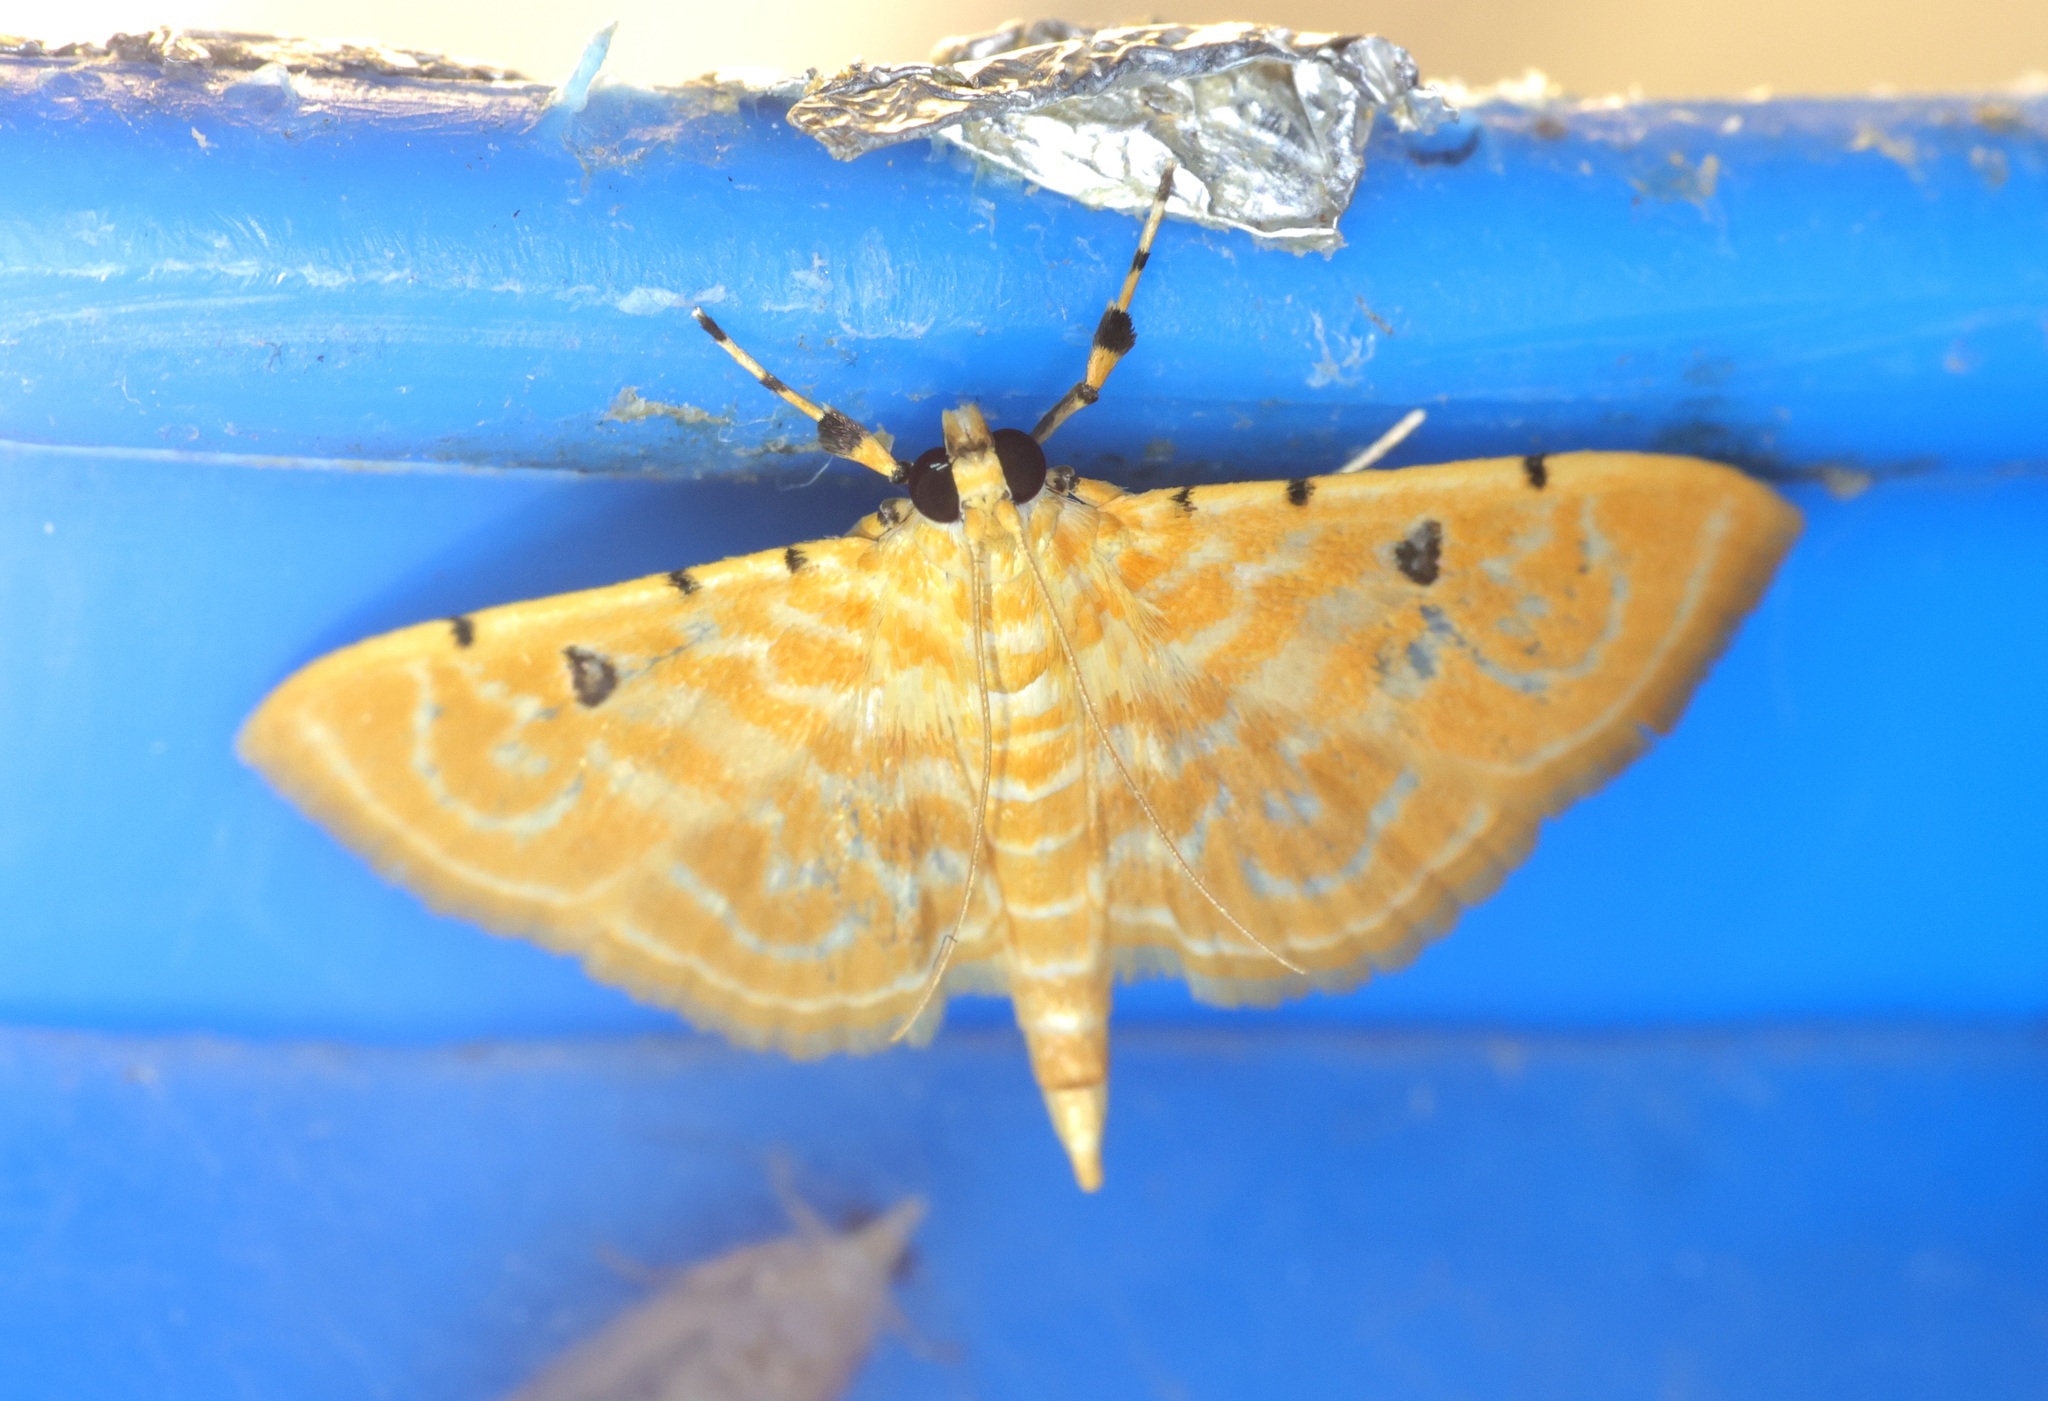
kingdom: Animalia
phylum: Arthropoda
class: Insecta
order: Lepidoptera
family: Crambidae
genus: Notarcha
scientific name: Notarcha aurolinealis
